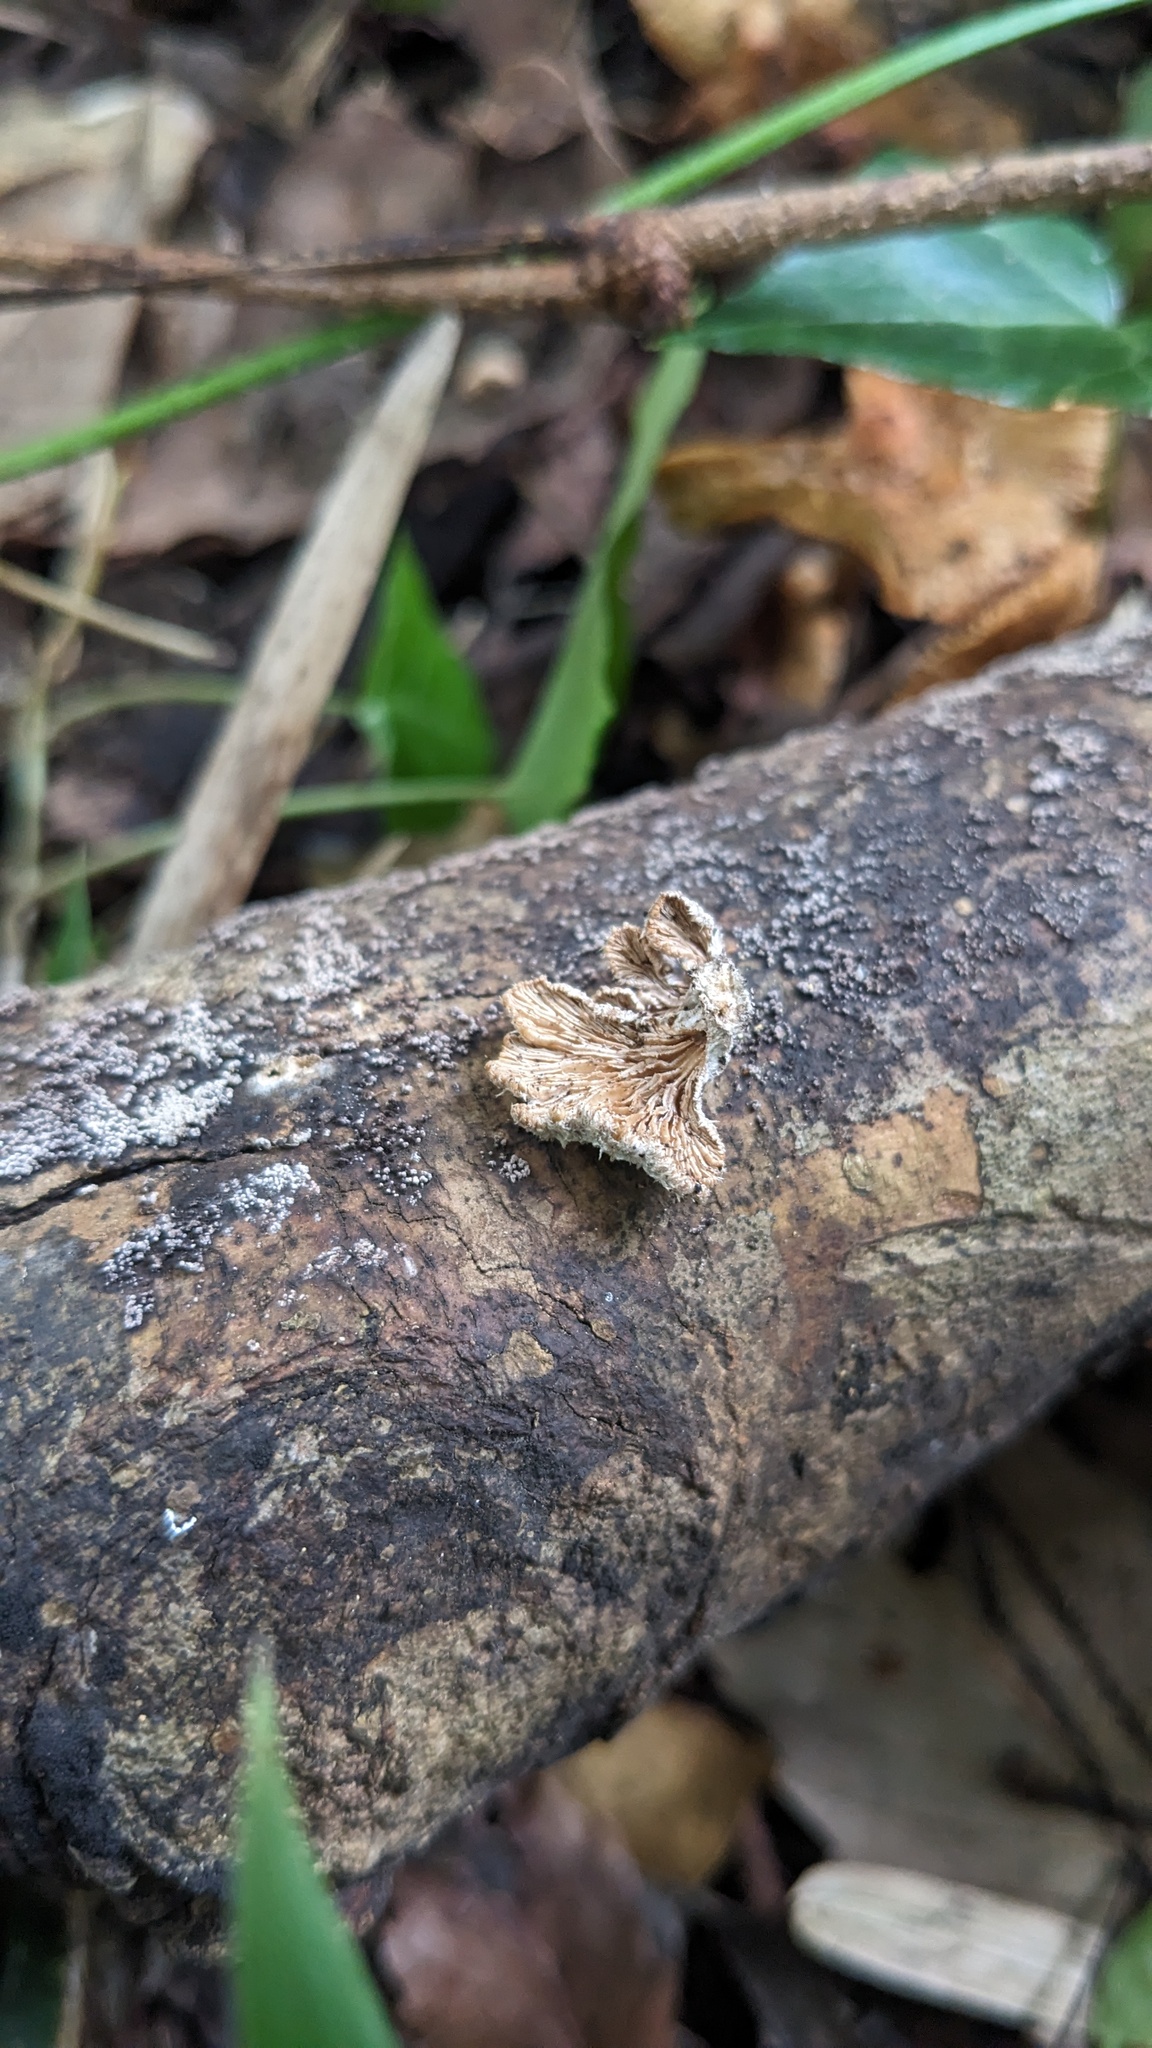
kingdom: Fungi
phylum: Basidiomycota
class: Agaricomycetes
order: Agaricales
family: Schizophyllaceae
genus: Schizophyllum
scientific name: Schizophyllum commune
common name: Common porecrust
